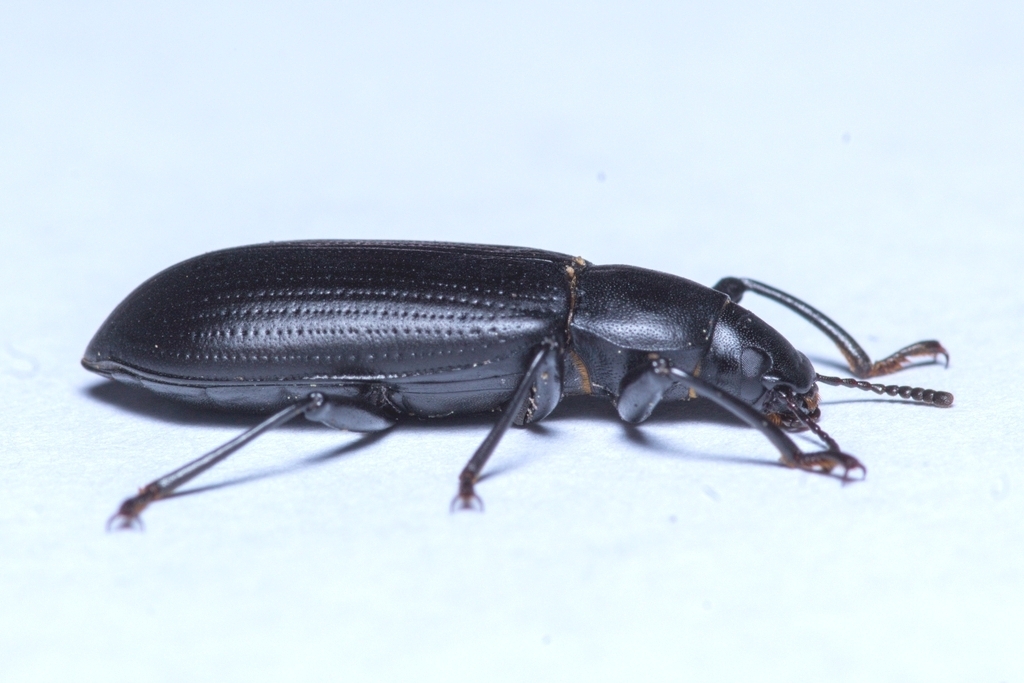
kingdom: Animalia
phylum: Arthropoda
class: Insecta
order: Coleoptera
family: Tenebrionidae
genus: Alobates
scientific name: Alobates barbatus
